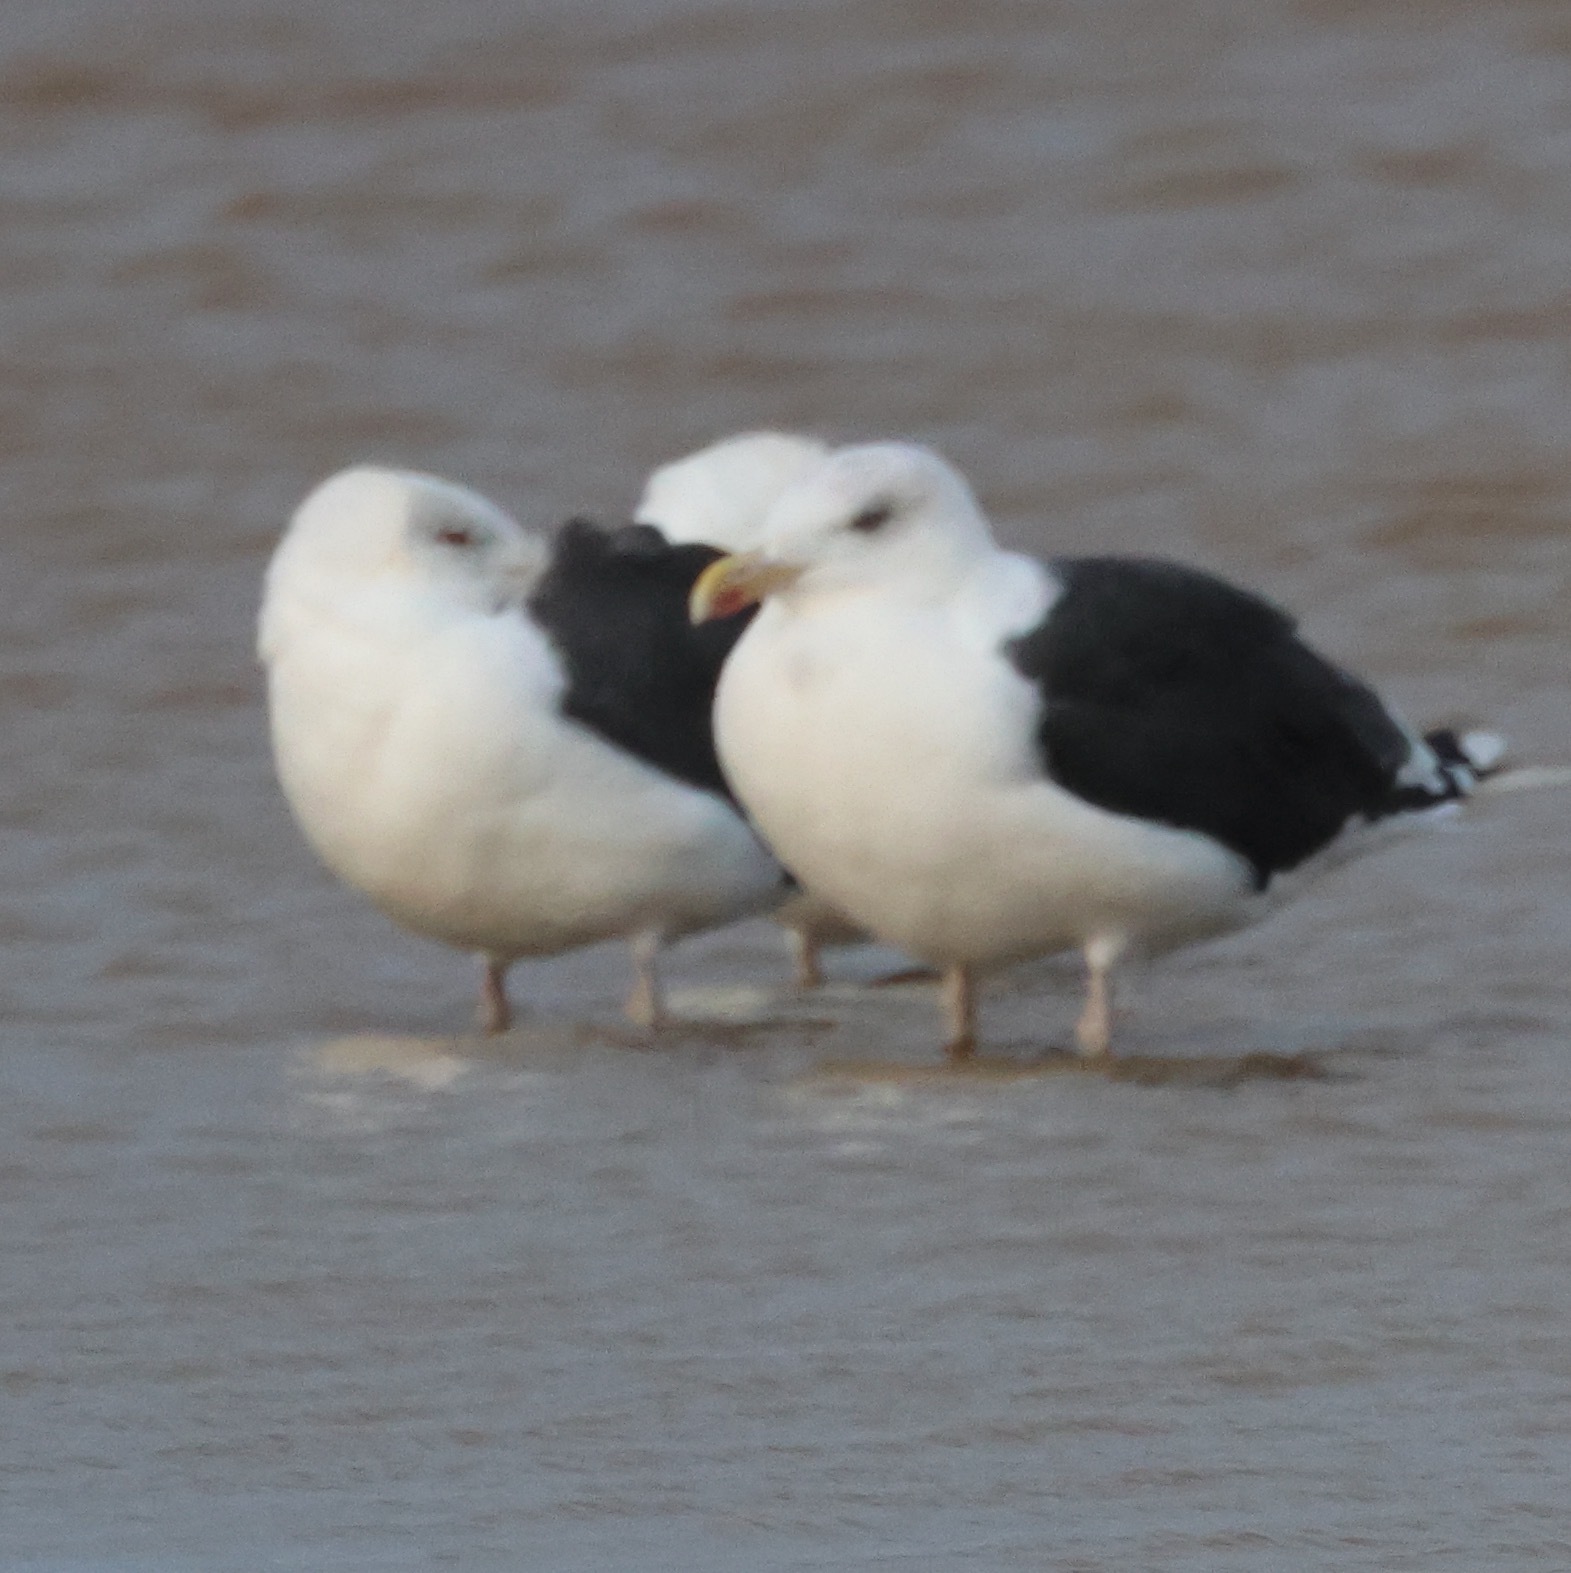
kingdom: Animalia
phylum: Chordata
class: Aves
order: Charadriiformes
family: Laridae
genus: Larus
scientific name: Larus marinus
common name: Great black-backed gull
